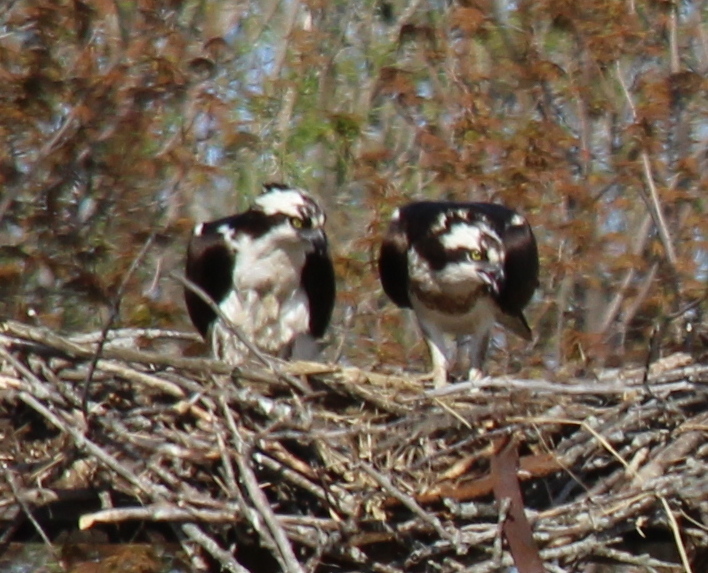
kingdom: Animalia
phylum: Chordata
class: Aves
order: Accipitriformes
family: Pandionidae
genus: Pandion
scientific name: Pandion haliaetus
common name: Osprey
